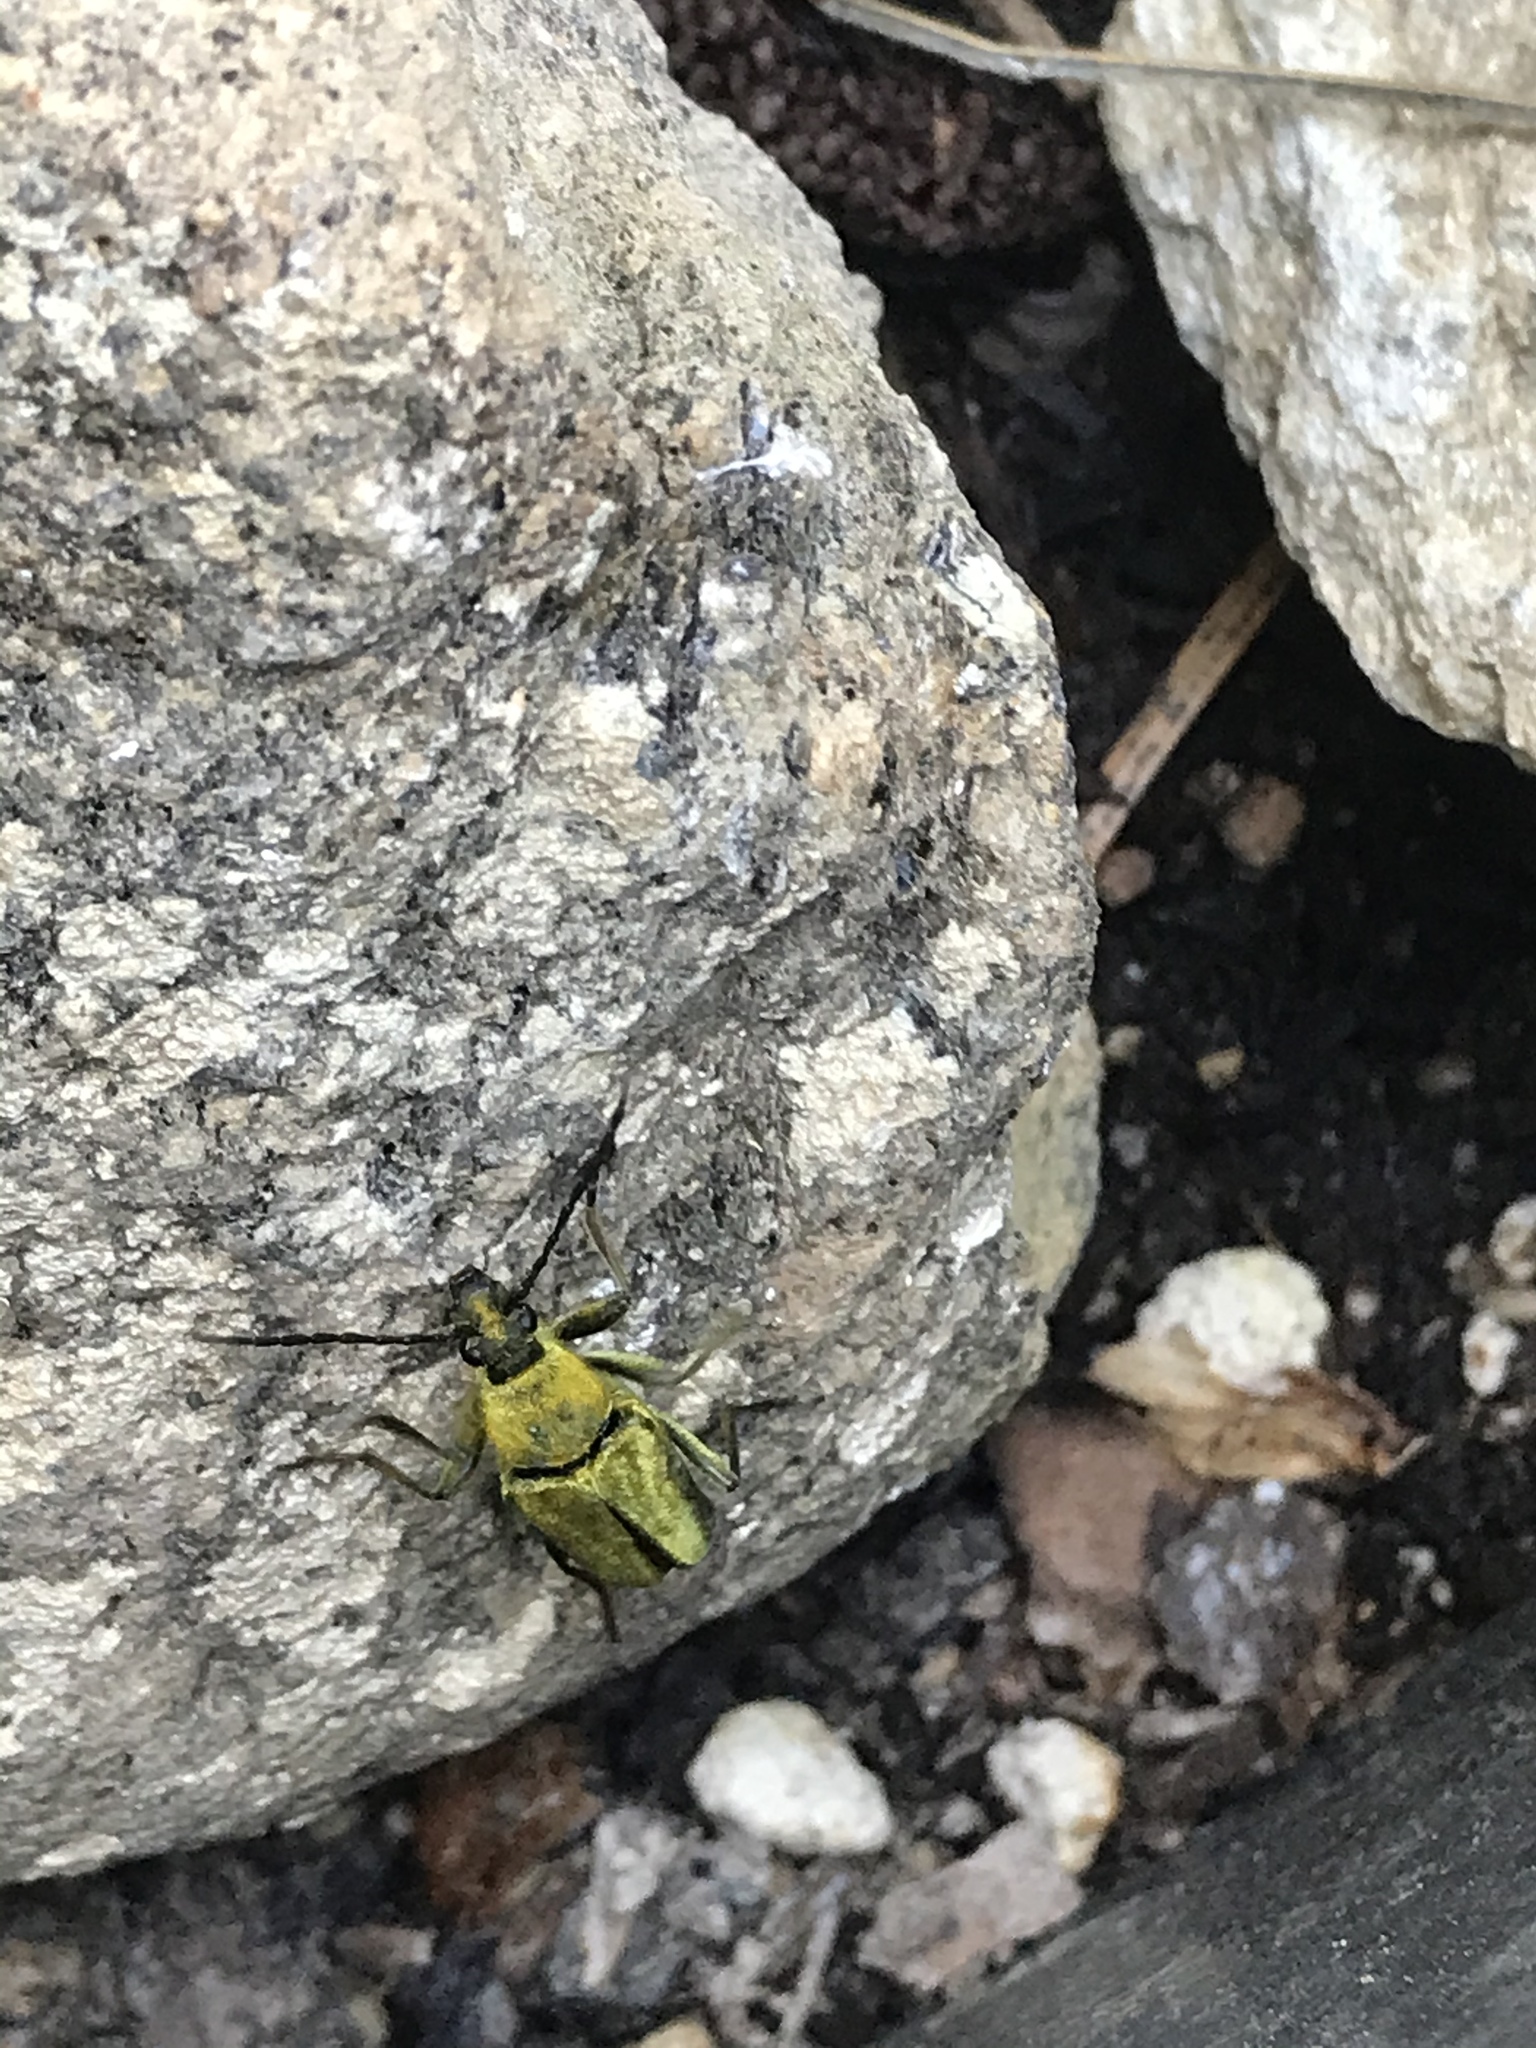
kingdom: Animalia
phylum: Arthropoda
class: Insecta
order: Coleoptera
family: Cerambycidae
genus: Cosmosalia
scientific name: Cosmosalia chrysocoma
